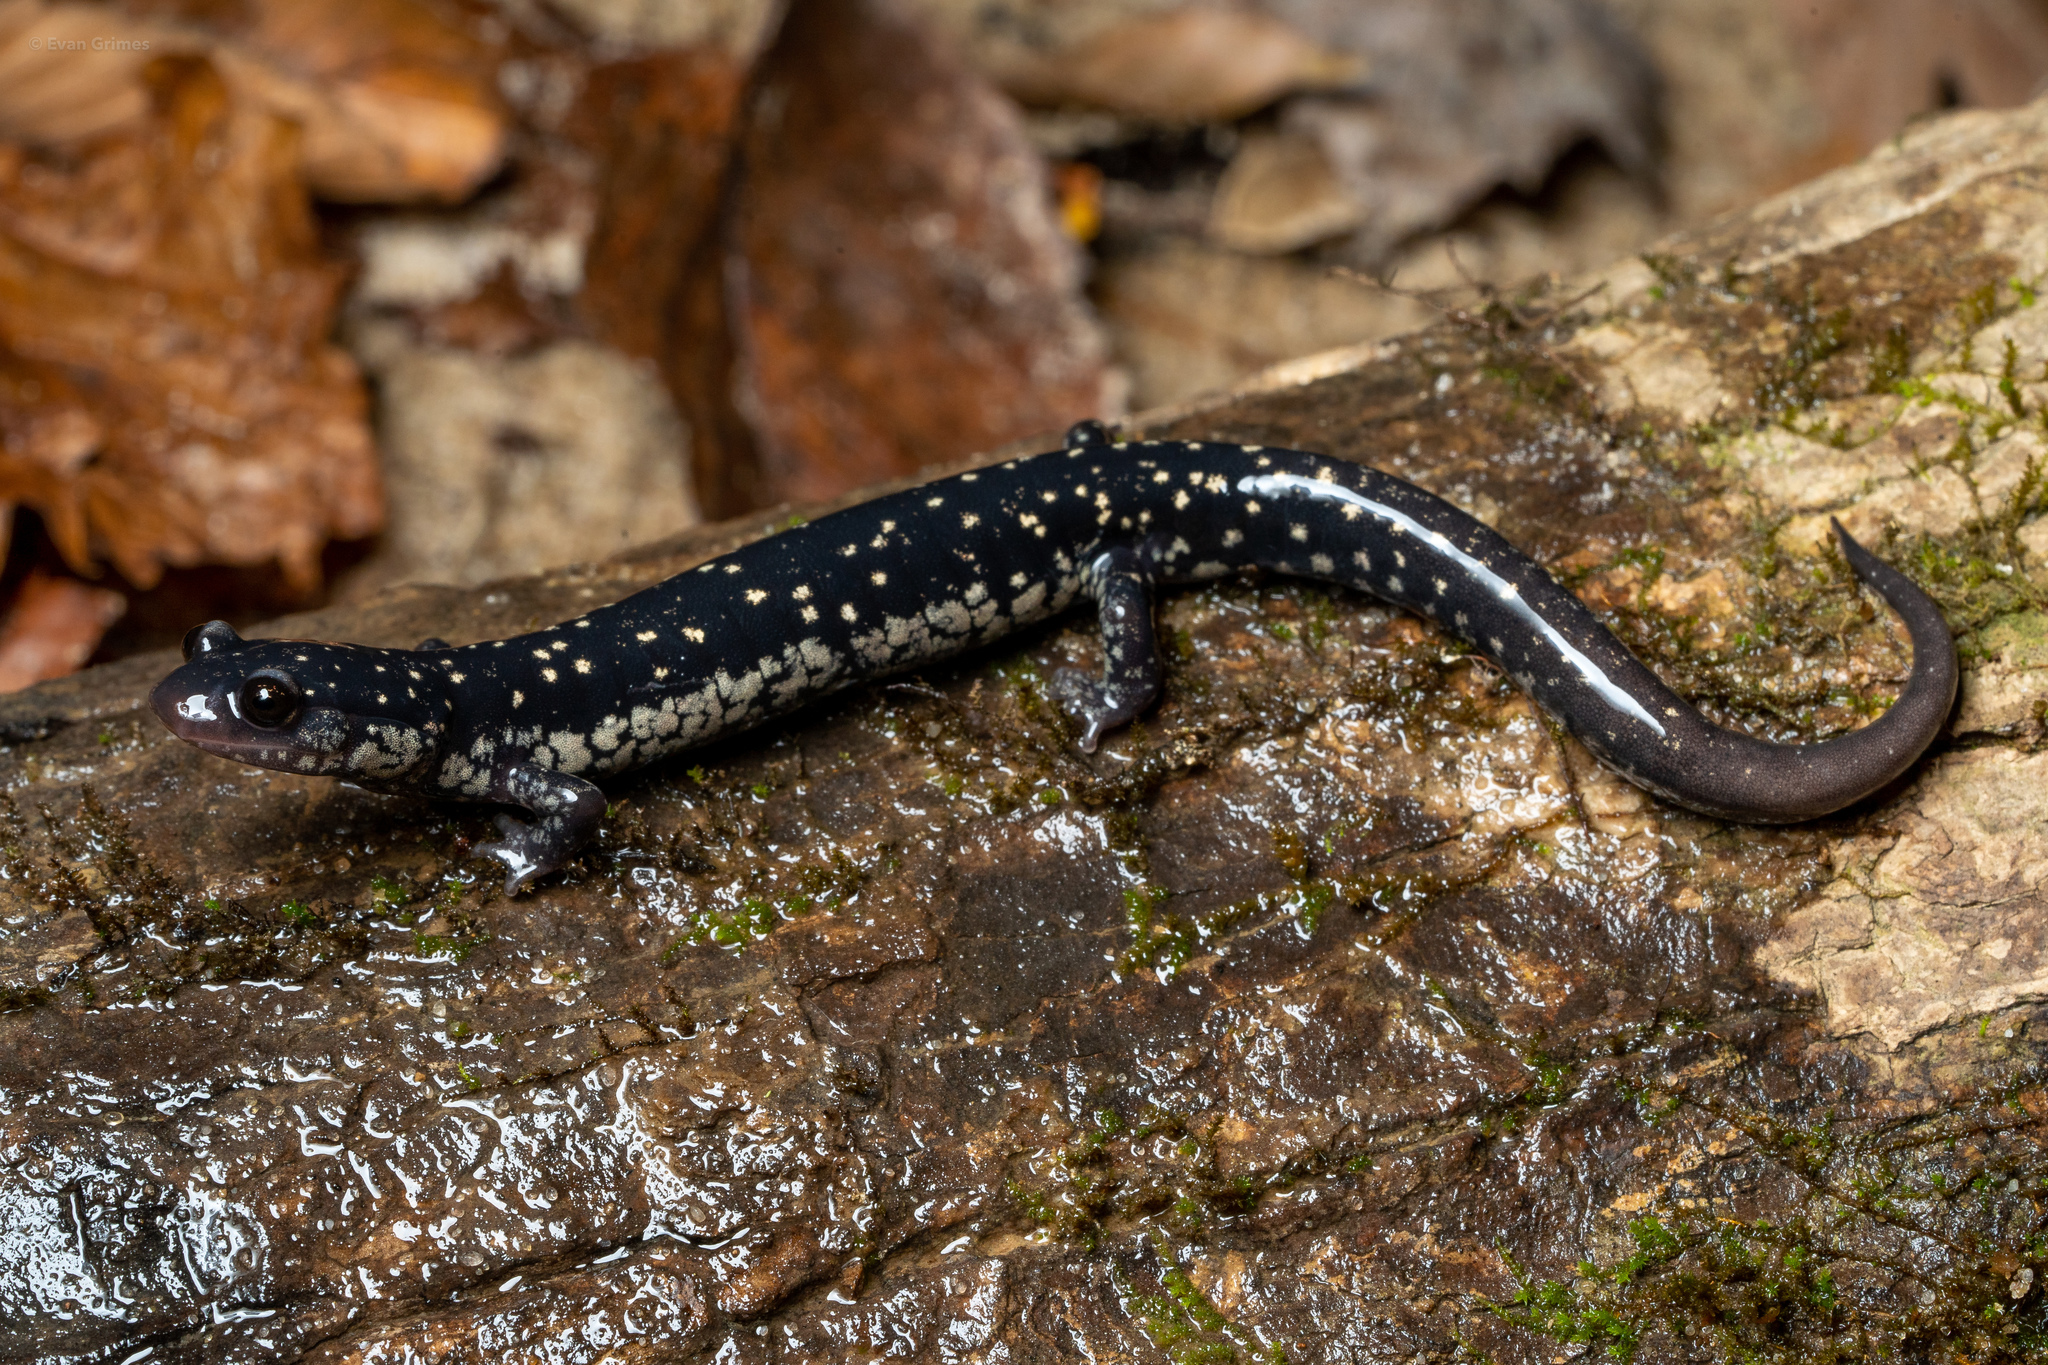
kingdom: Animalia
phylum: Chordata
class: Amphibia
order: Caudata
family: Plethodontidae
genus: Plethodon
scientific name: Plethodon mississippi
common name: Mississippi slimy salamander
